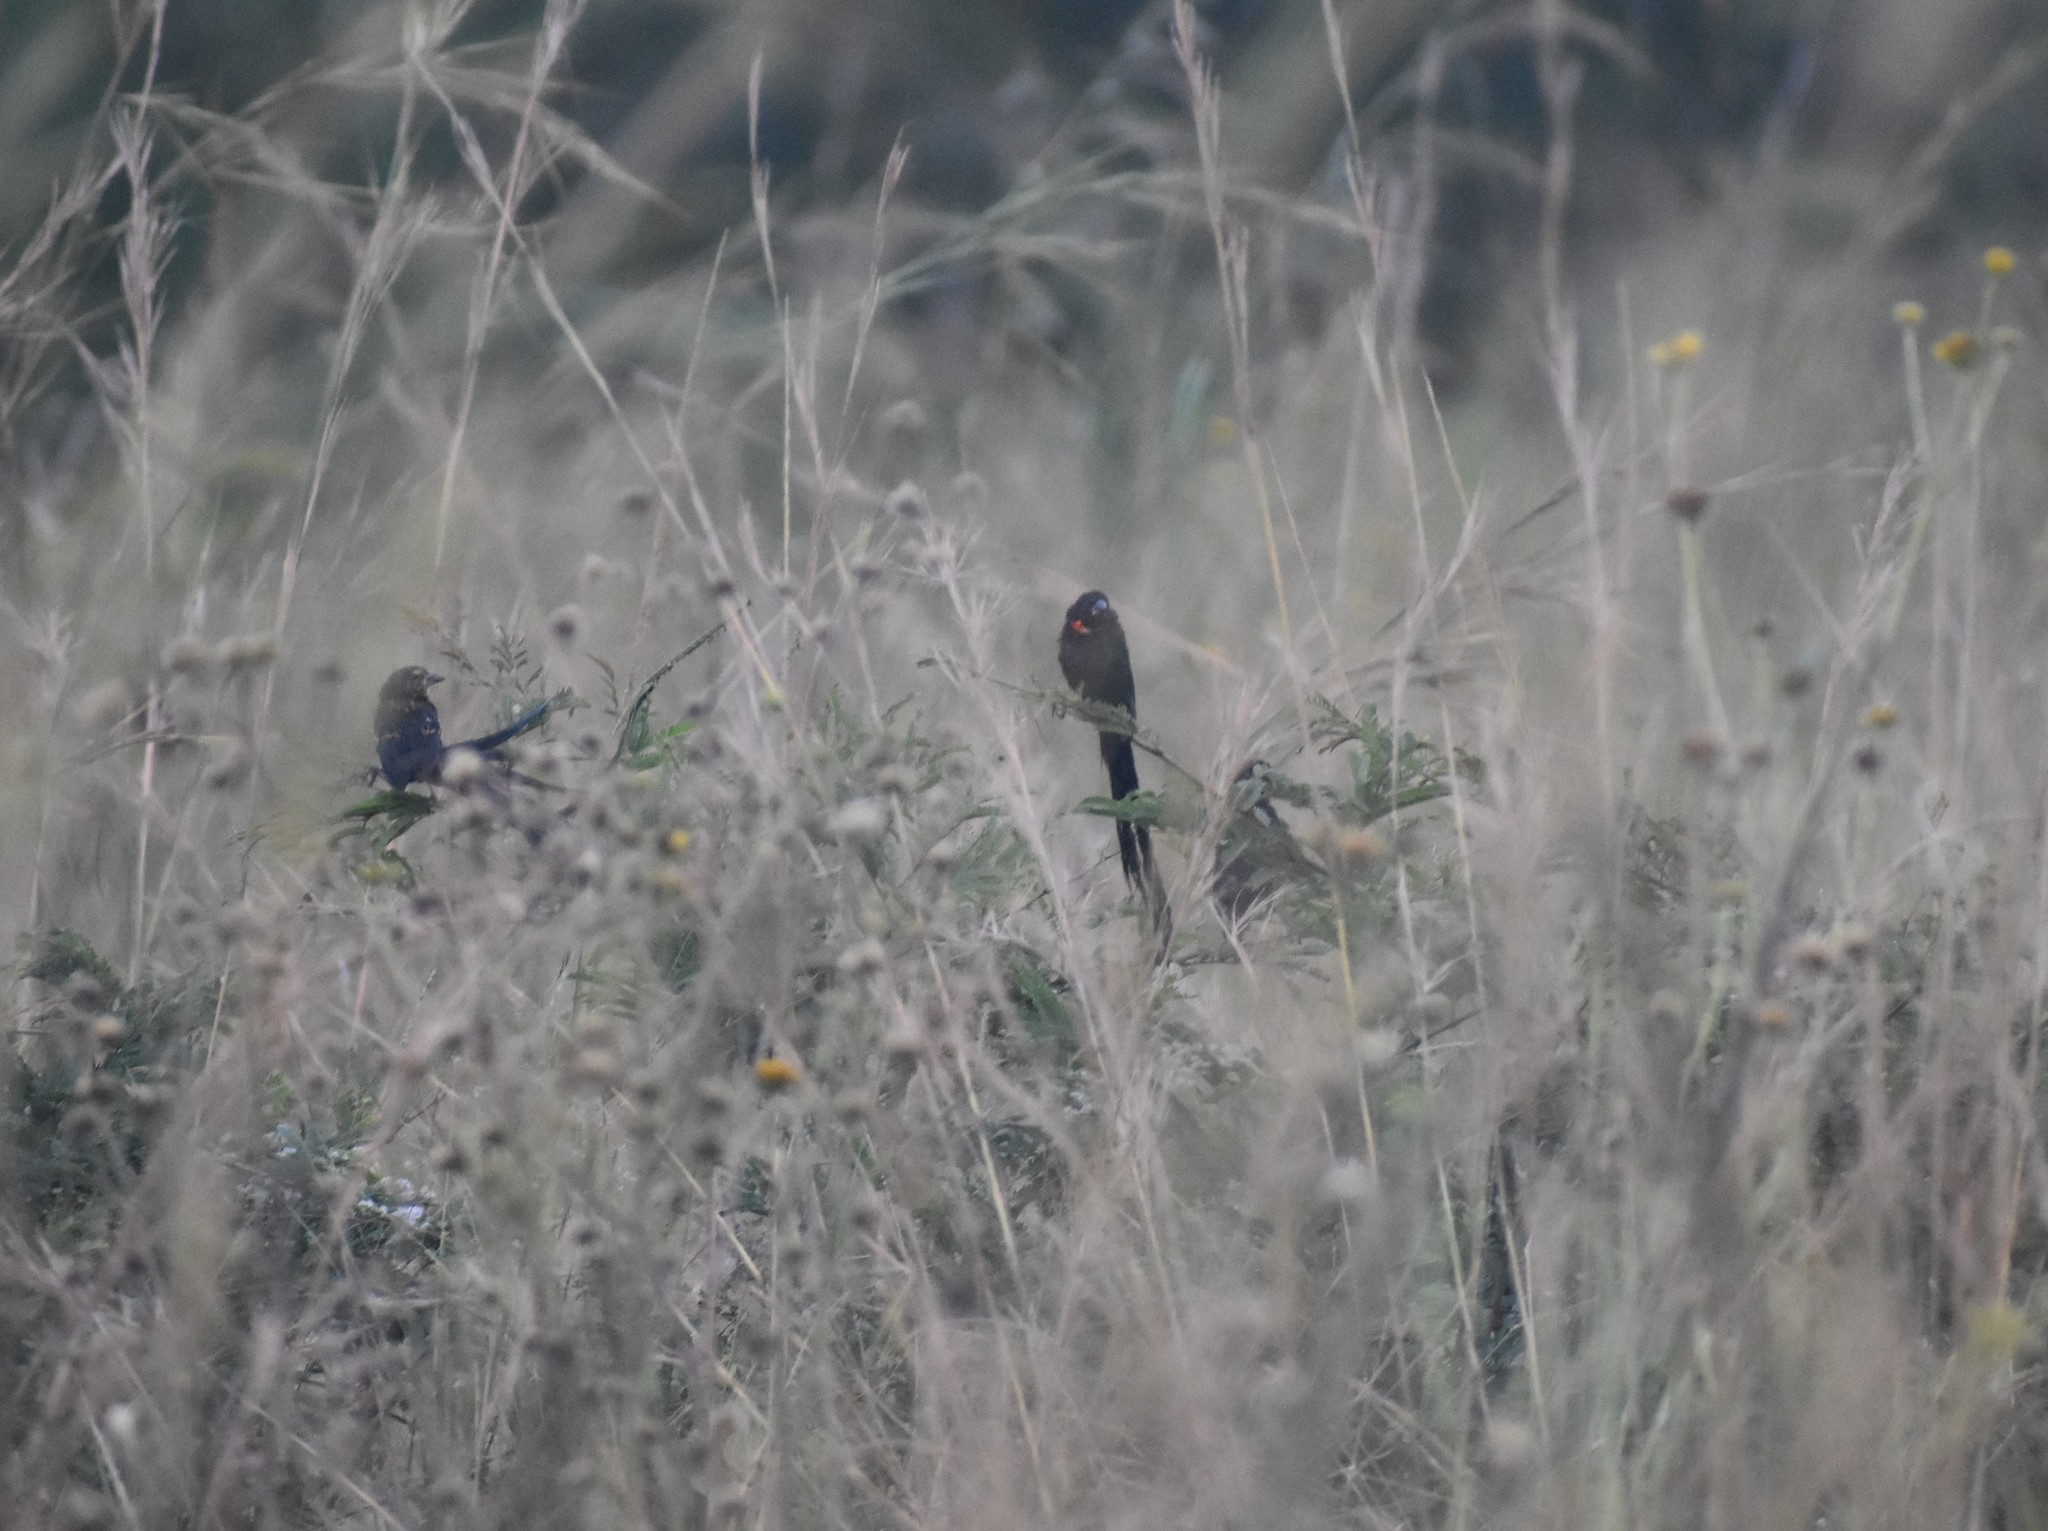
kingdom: Animalia
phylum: Chordata
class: Aves
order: Passeriformes
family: Ploceidae
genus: Euplectes
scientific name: Euplectes ardens
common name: Red-collared widowbird
